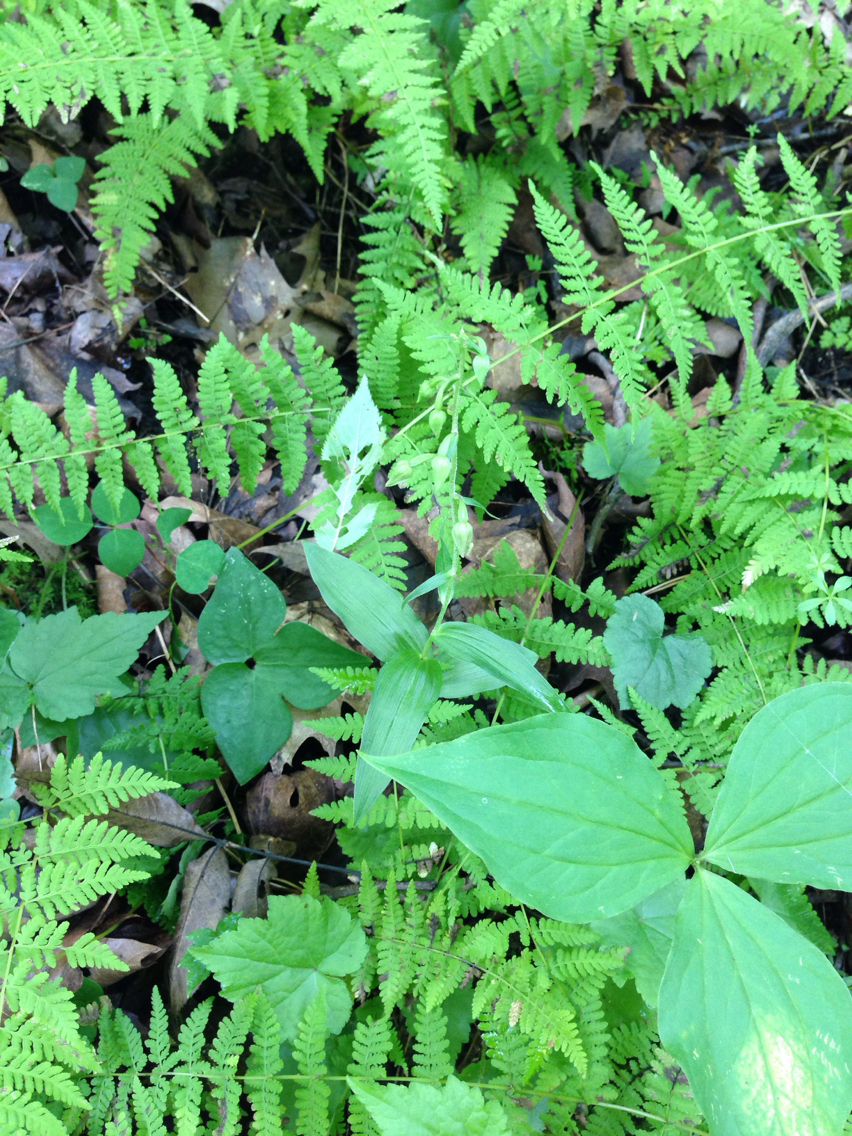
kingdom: Plantae
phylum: Tracheophyta
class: Liliopsida
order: Asparagales
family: Orchidaceae
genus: Epipactis
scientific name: Epipactis helleborine
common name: Broad-leaved helleborine
